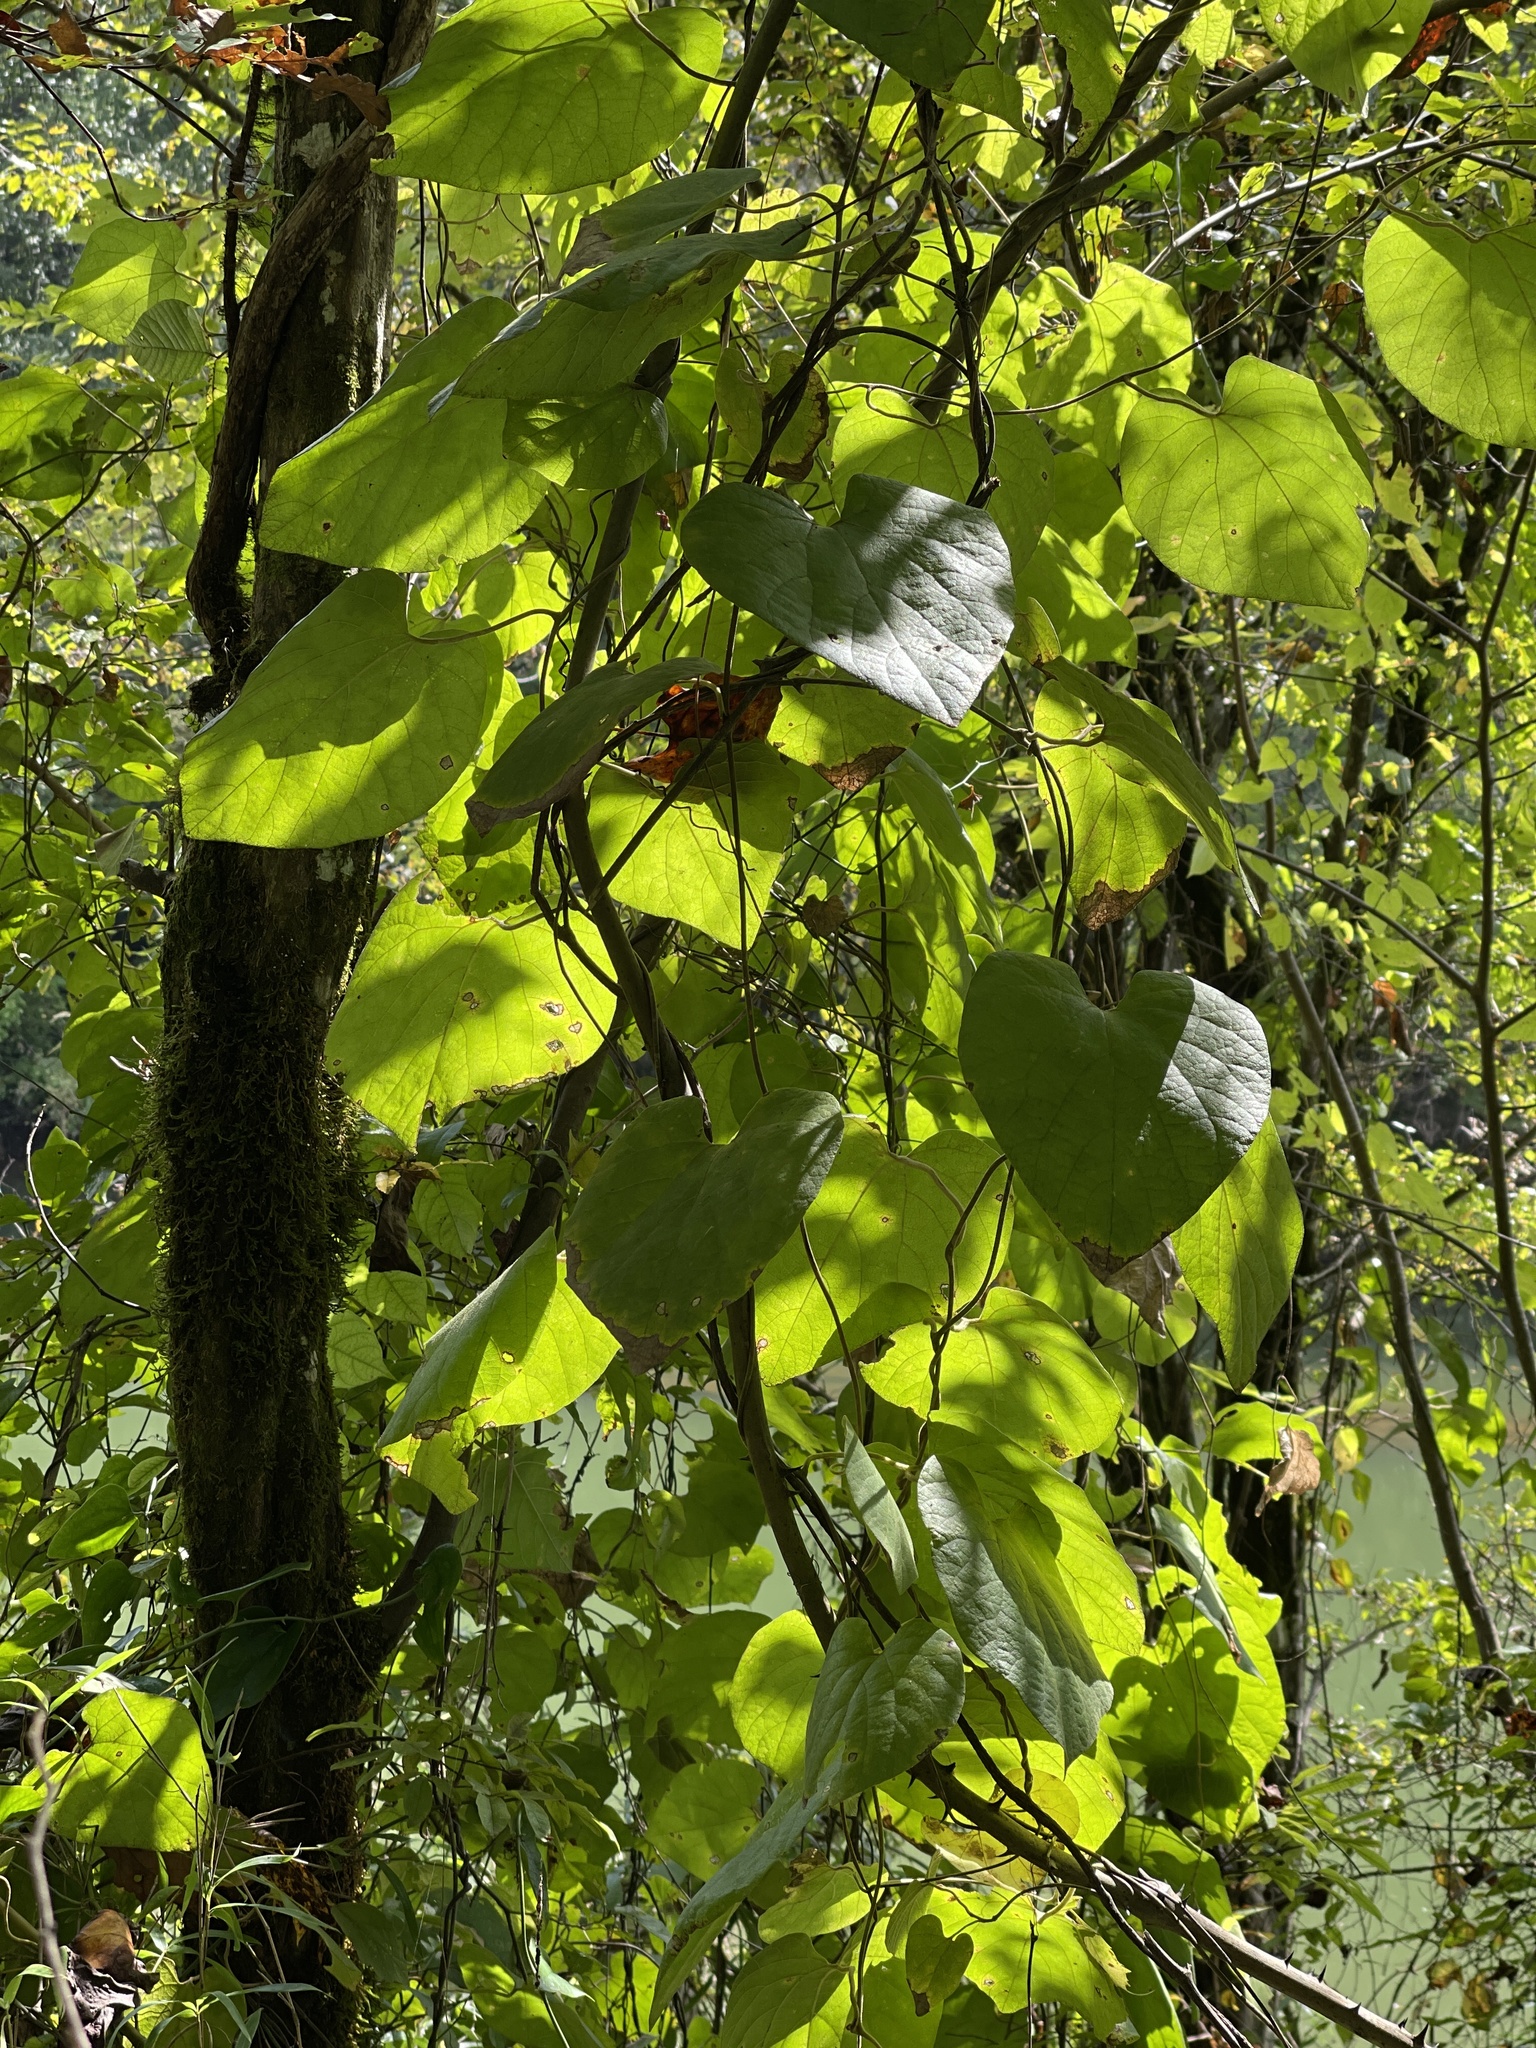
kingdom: Plantae
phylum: Tracheophyta
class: Magnoliopsida
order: Piperales
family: Aristolochiaceae
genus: Isotrema
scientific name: Isotrema tomentosum
